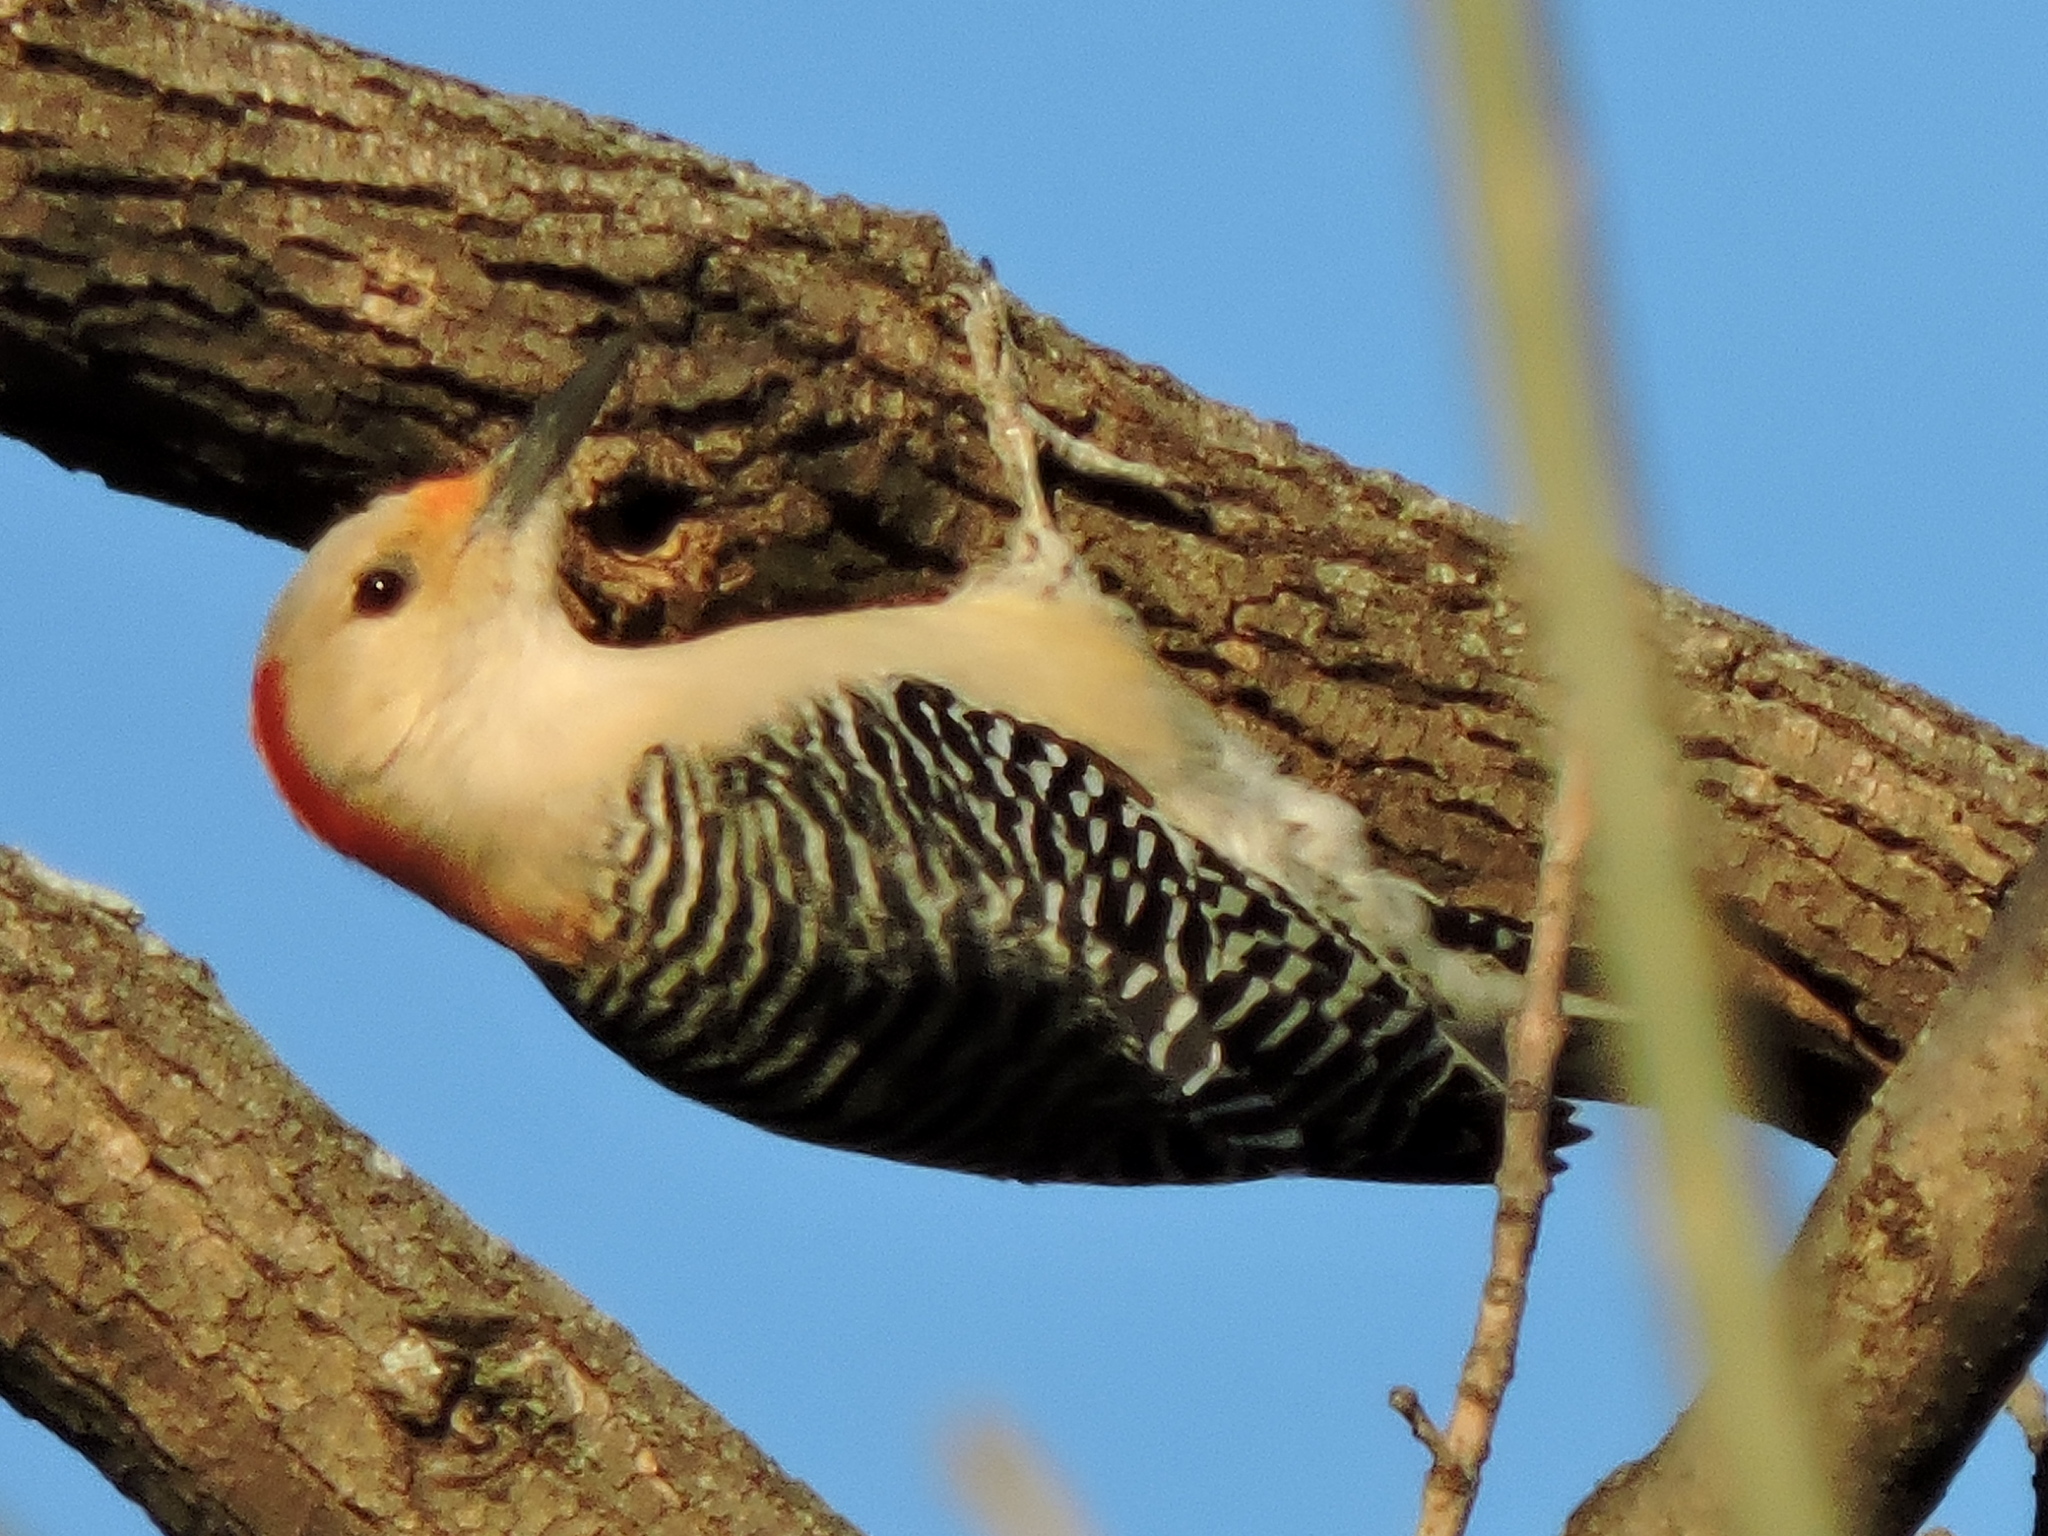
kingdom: Animalia
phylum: Chordata
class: Aves
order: Piciformes
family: Picidae
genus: Melanerpes
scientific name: Melanerpes carolinus
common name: Red-bellied woodpecker
